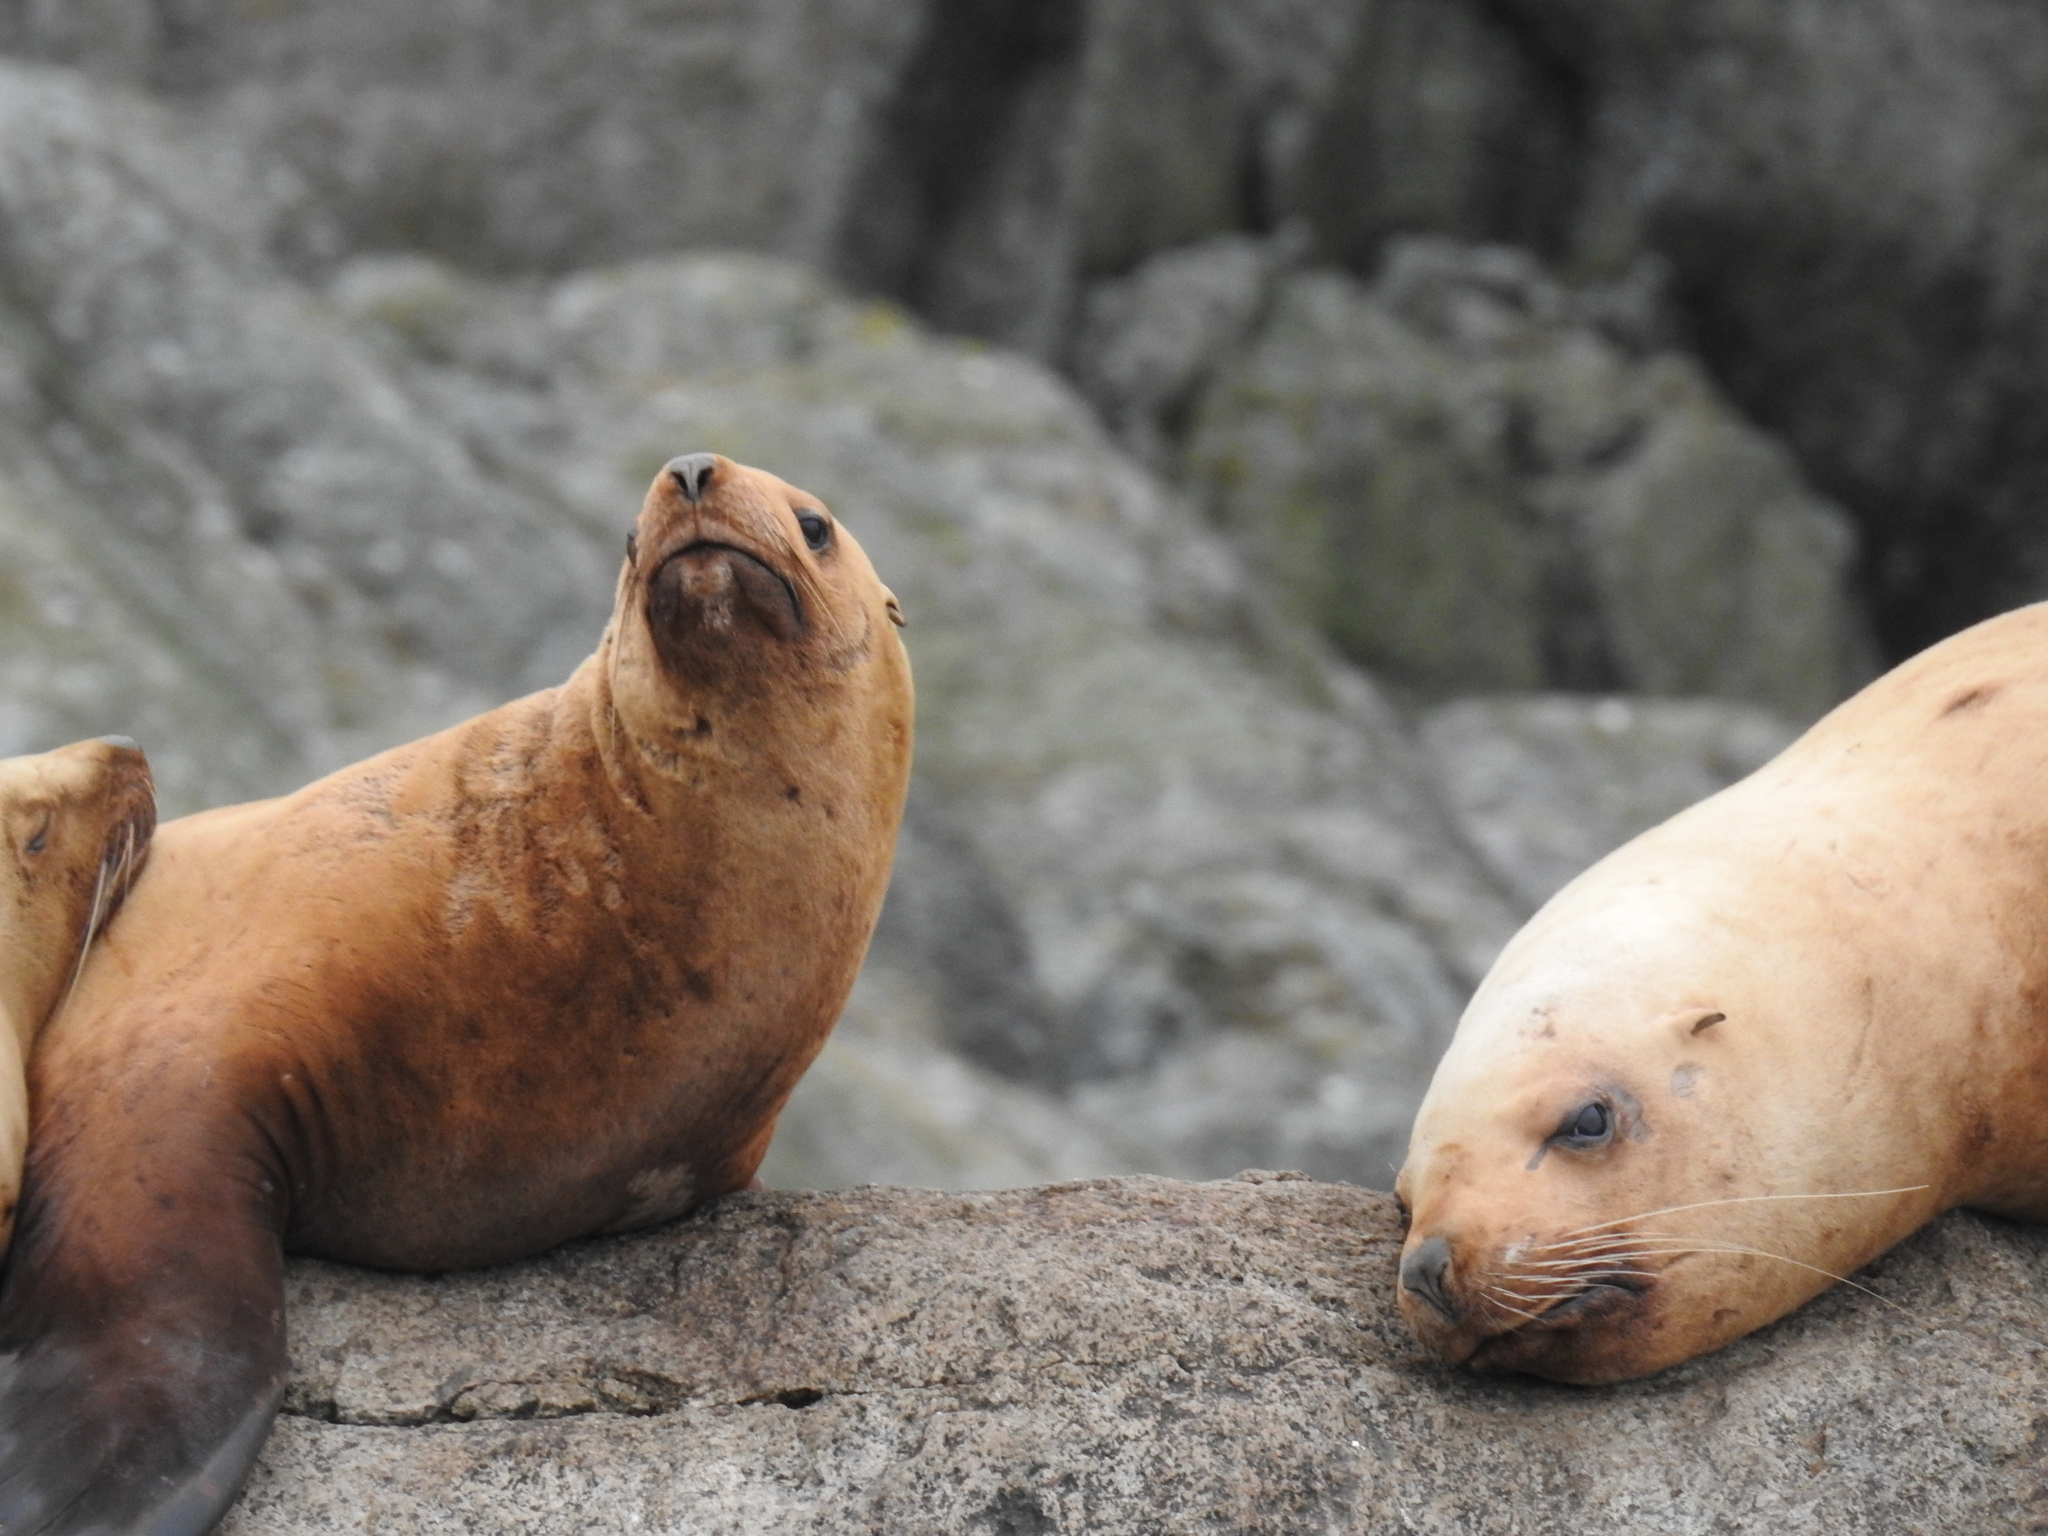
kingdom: Animalia
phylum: Chordata
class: Mammalia
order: Carnivora
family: Otariidae
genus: Eumetopias
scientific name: Eumetopias jubatus
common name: Steller sea lion
